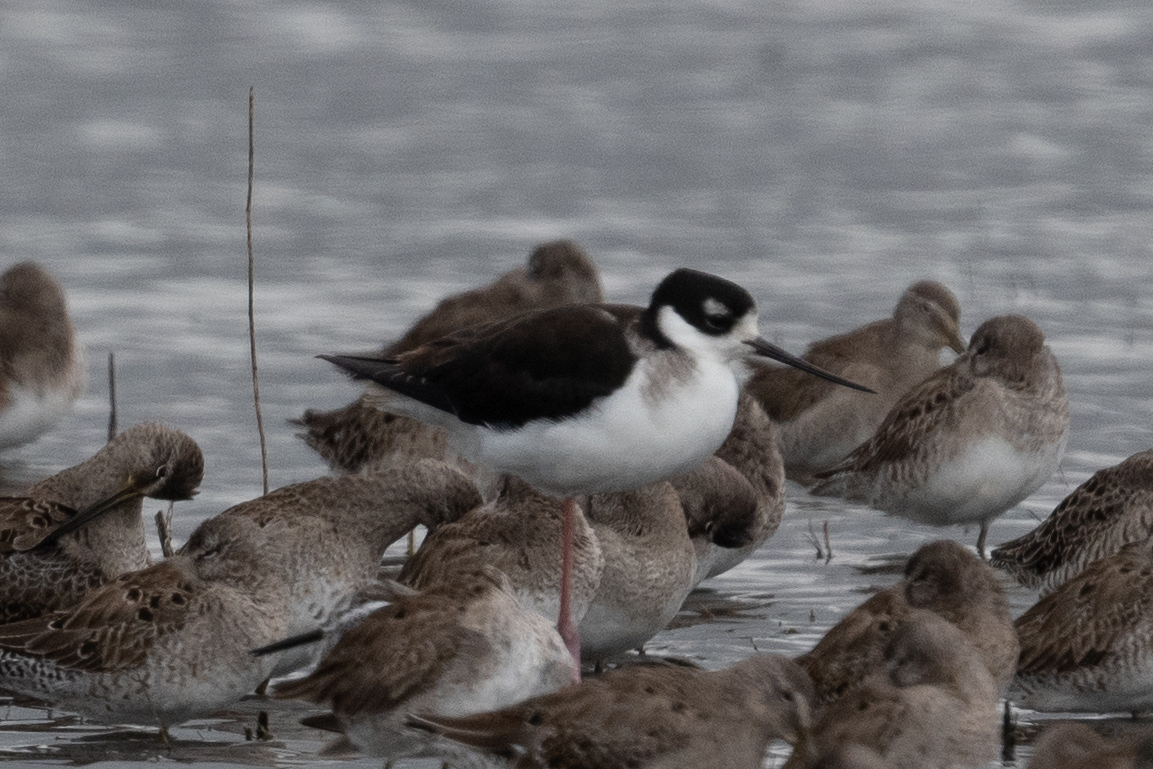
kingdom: Animalia
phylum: Chordata
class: Aves
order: Charadriiformes
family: Recurvirostridae
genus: Himantopus
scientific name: Himantopus mexicanus
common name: Black-necked stilt
